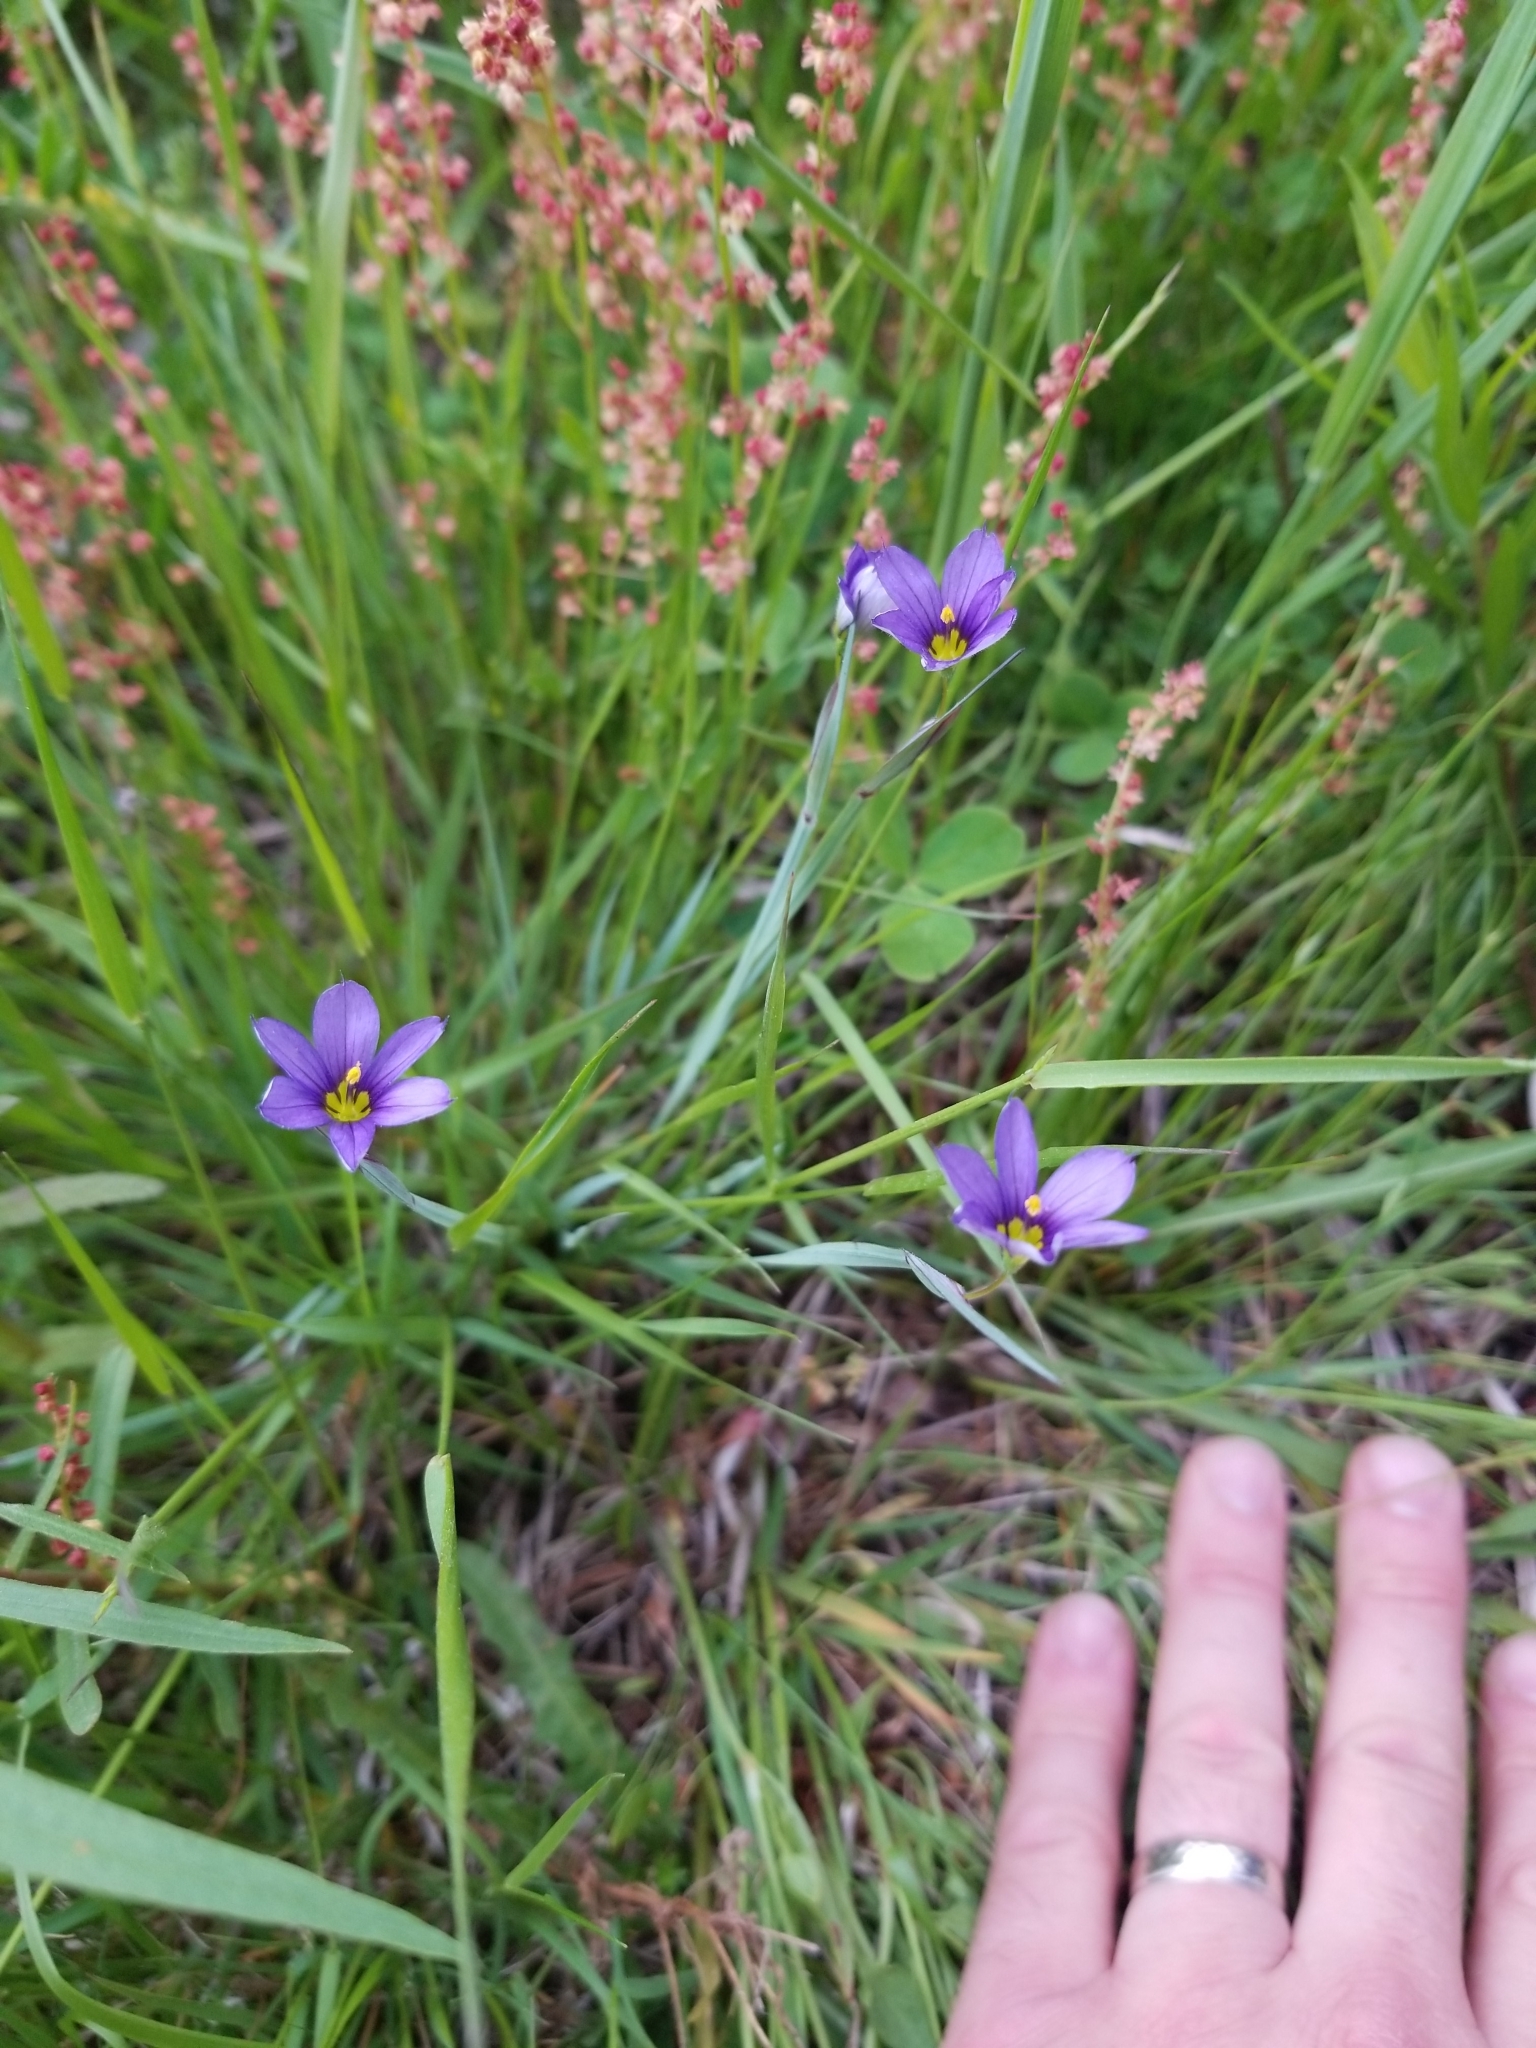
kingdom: Plantae
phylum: Tracheophyta
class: Liliopsida
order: Asparagales
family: Iridaceae
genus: Sisyrinchium
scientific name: Sisyrinchium montanum
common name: American blue-eyed-grass
